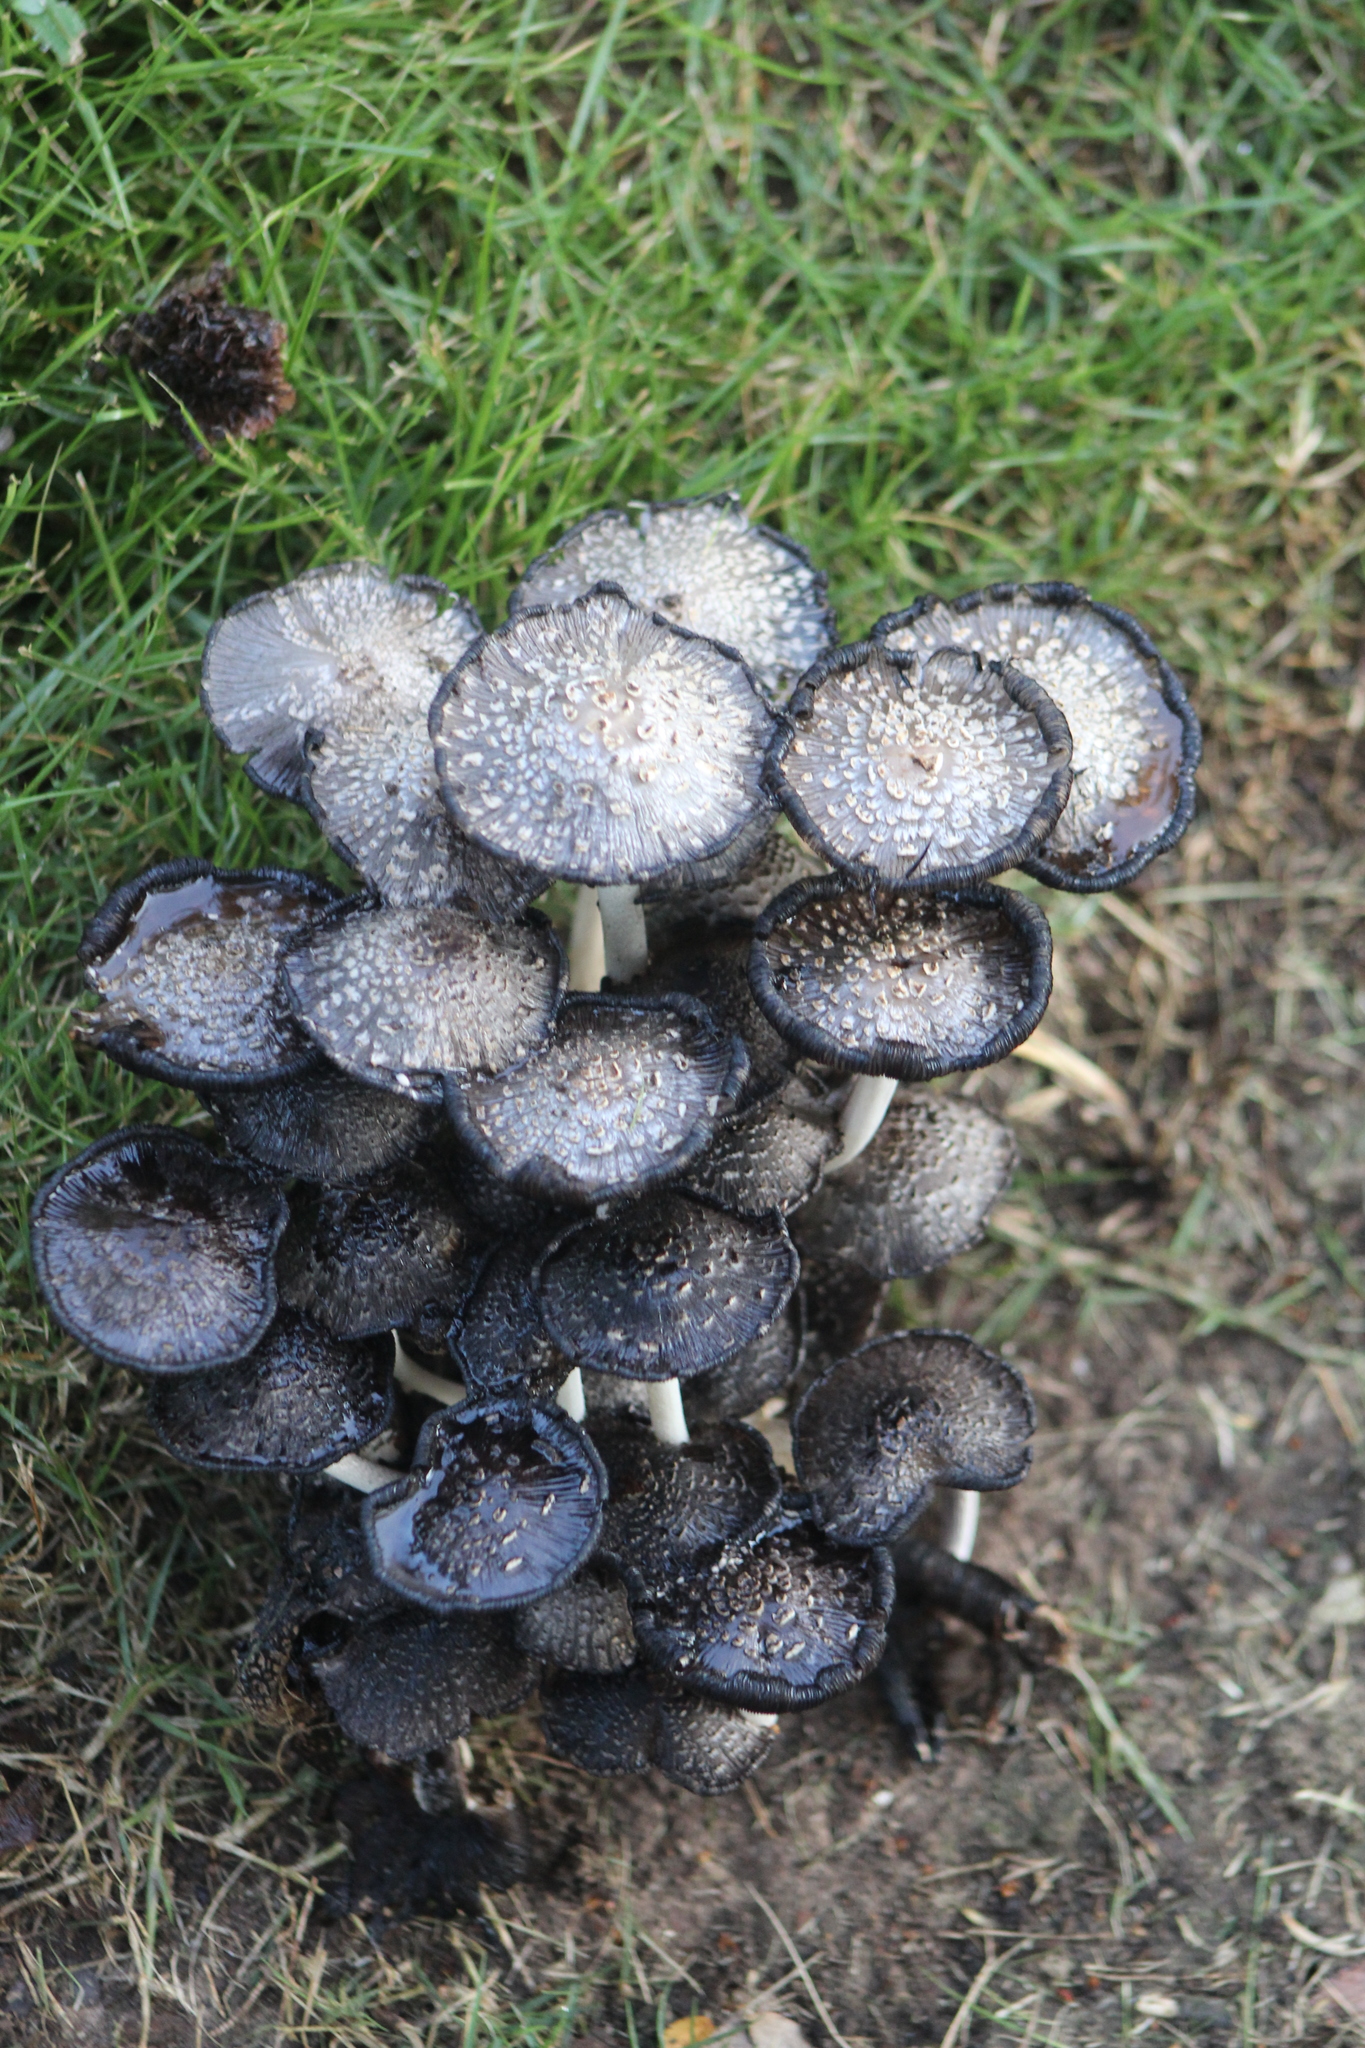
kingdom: Fungi
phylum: Basidiomycota
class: Agaricomycetes
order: Agaricales
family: Psathyrellaceae
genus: Coprinopsis
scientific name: Coprinopsis variegata
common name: Scaly ink cap
